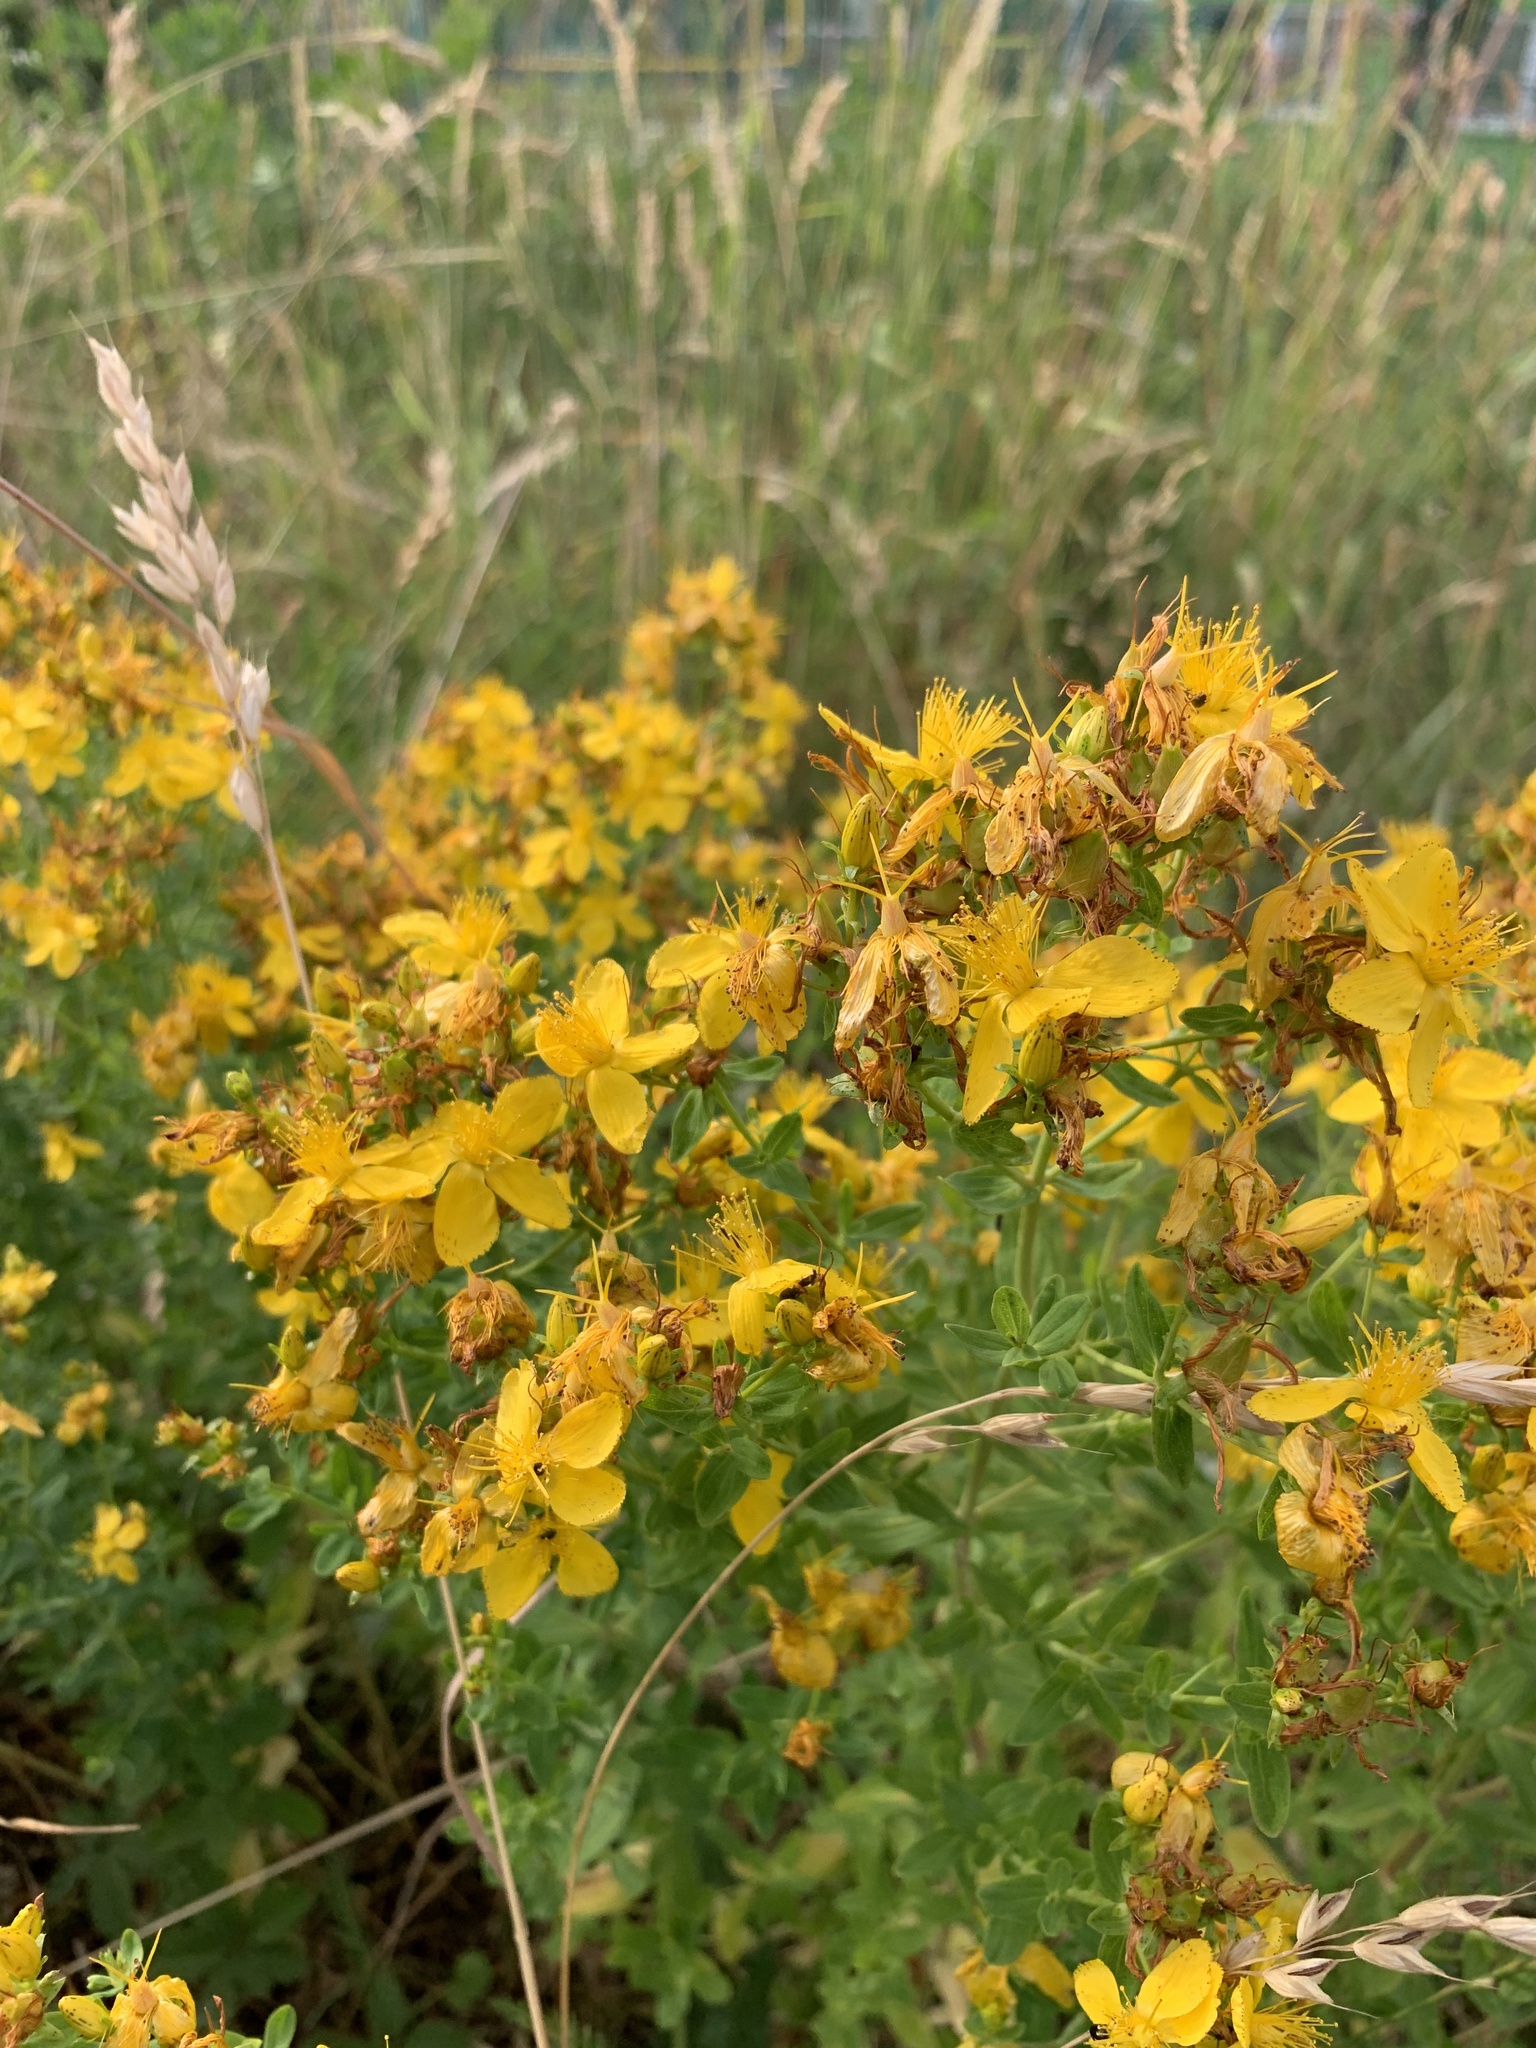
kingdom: Plantae
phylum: Tracheophyta
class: Magnoliopsida
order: Malpighiales
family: Hypericaceae
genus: Hypericum
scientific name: Hypericum perforatum
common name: Common st. johnswort
